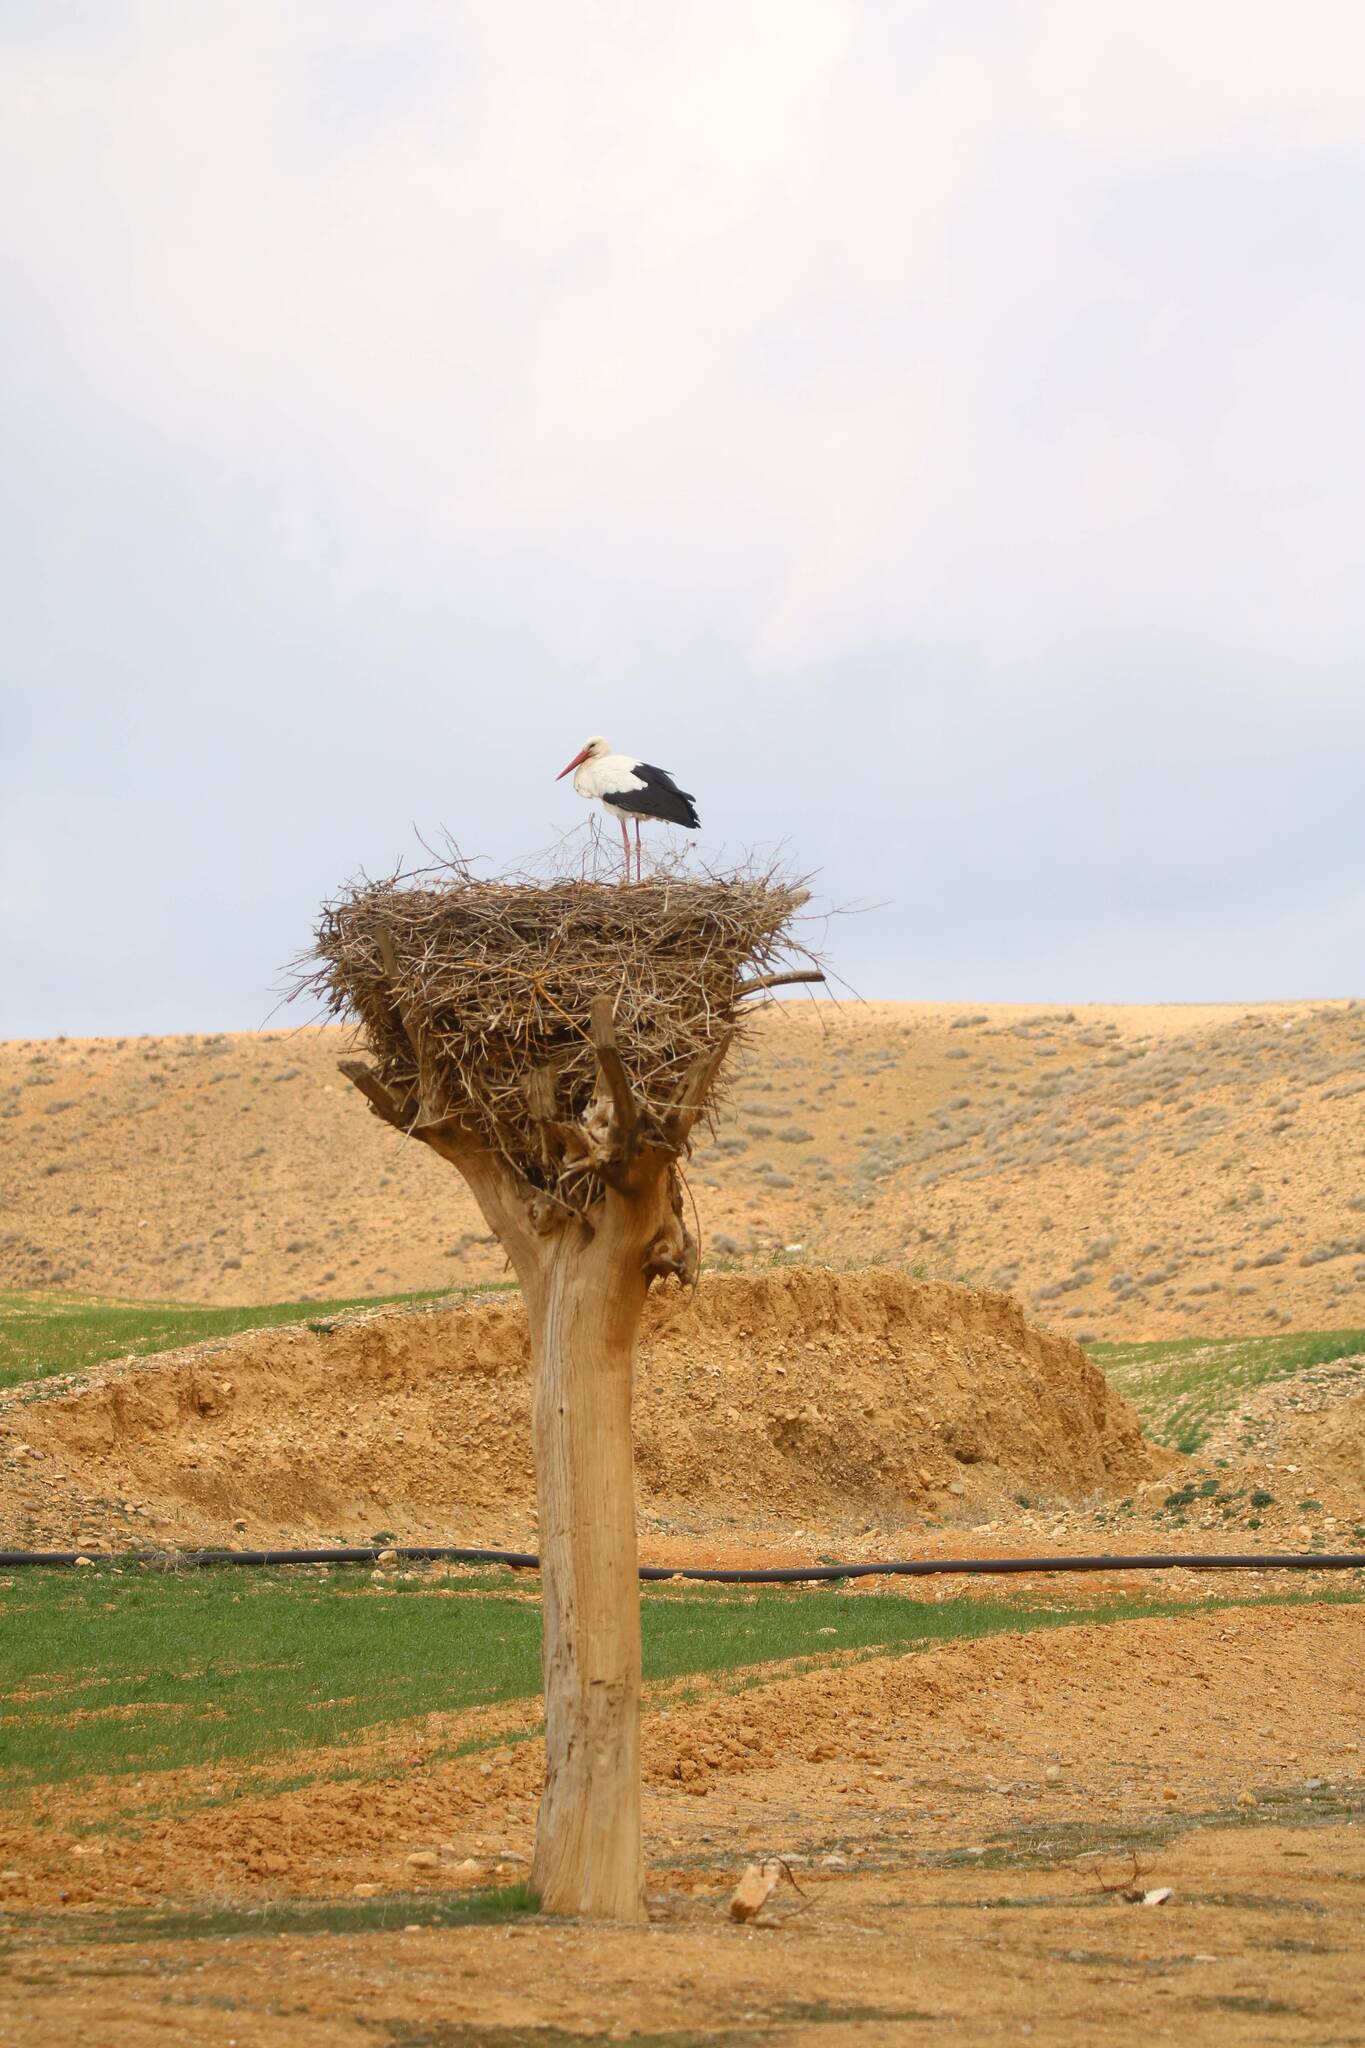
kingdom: Animalia
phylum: Chordata
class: Aves
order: Ciconiiformes
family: Ciconiidae
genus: Ciconia
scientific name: Ciconia ciconia
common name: White stork
